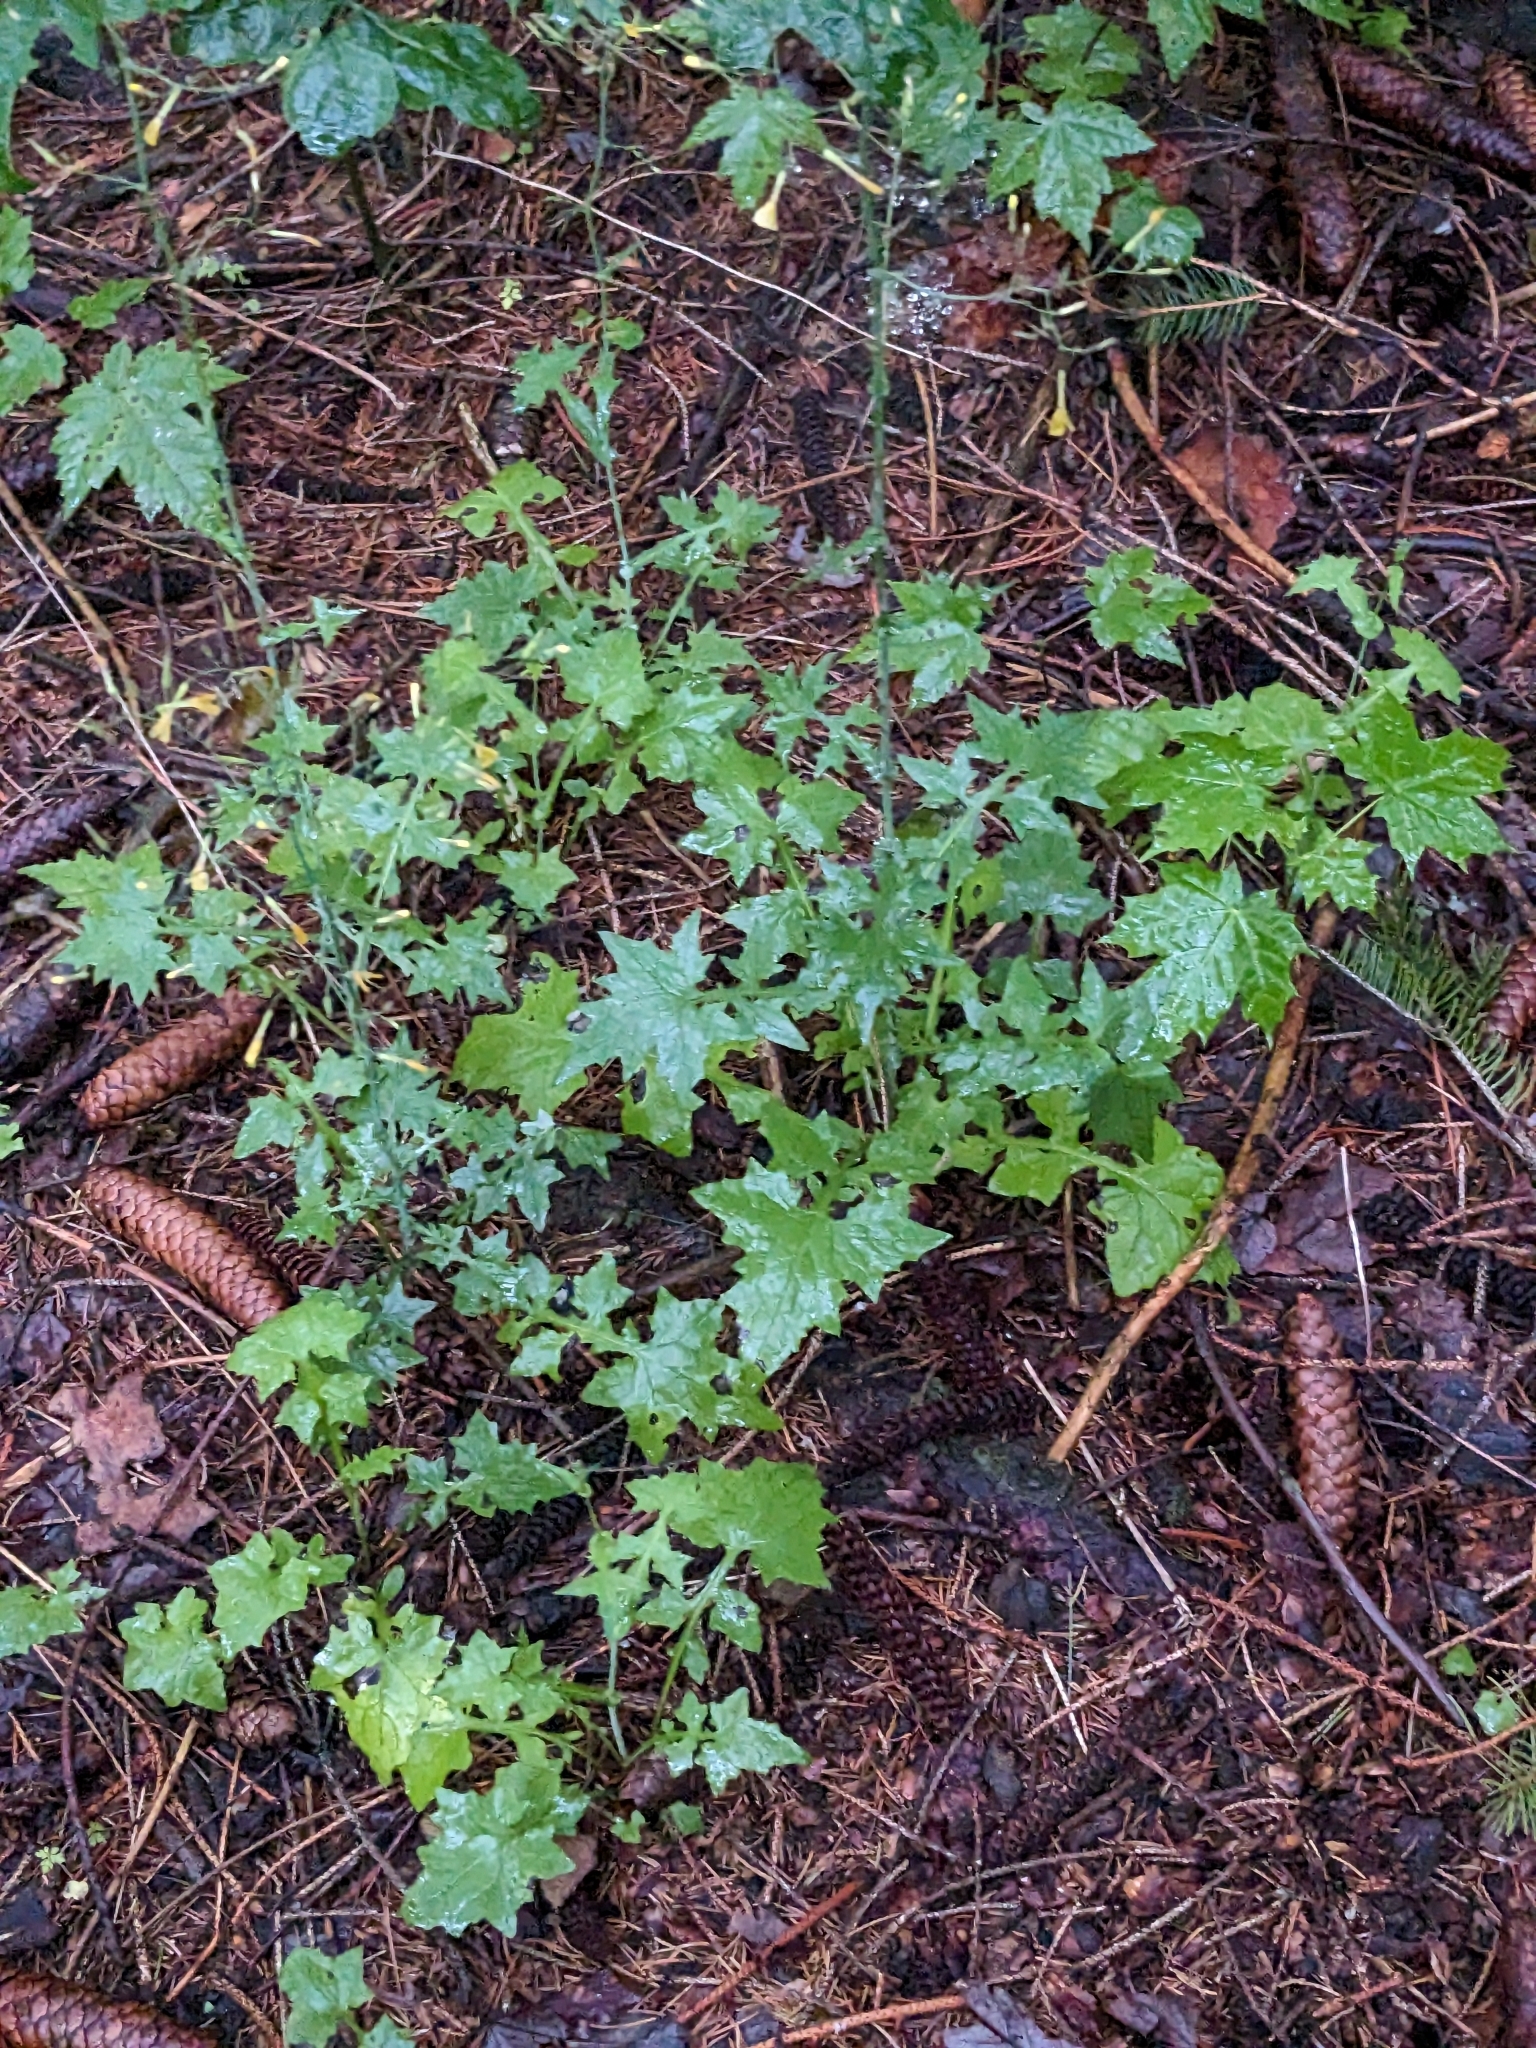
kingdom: Plantae
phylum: Tracheophyta
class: Magnoliopsida
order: Asterales
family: Asteraceae
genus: Mycelis
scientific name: Mycelis muralis
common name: Wall lettuce
